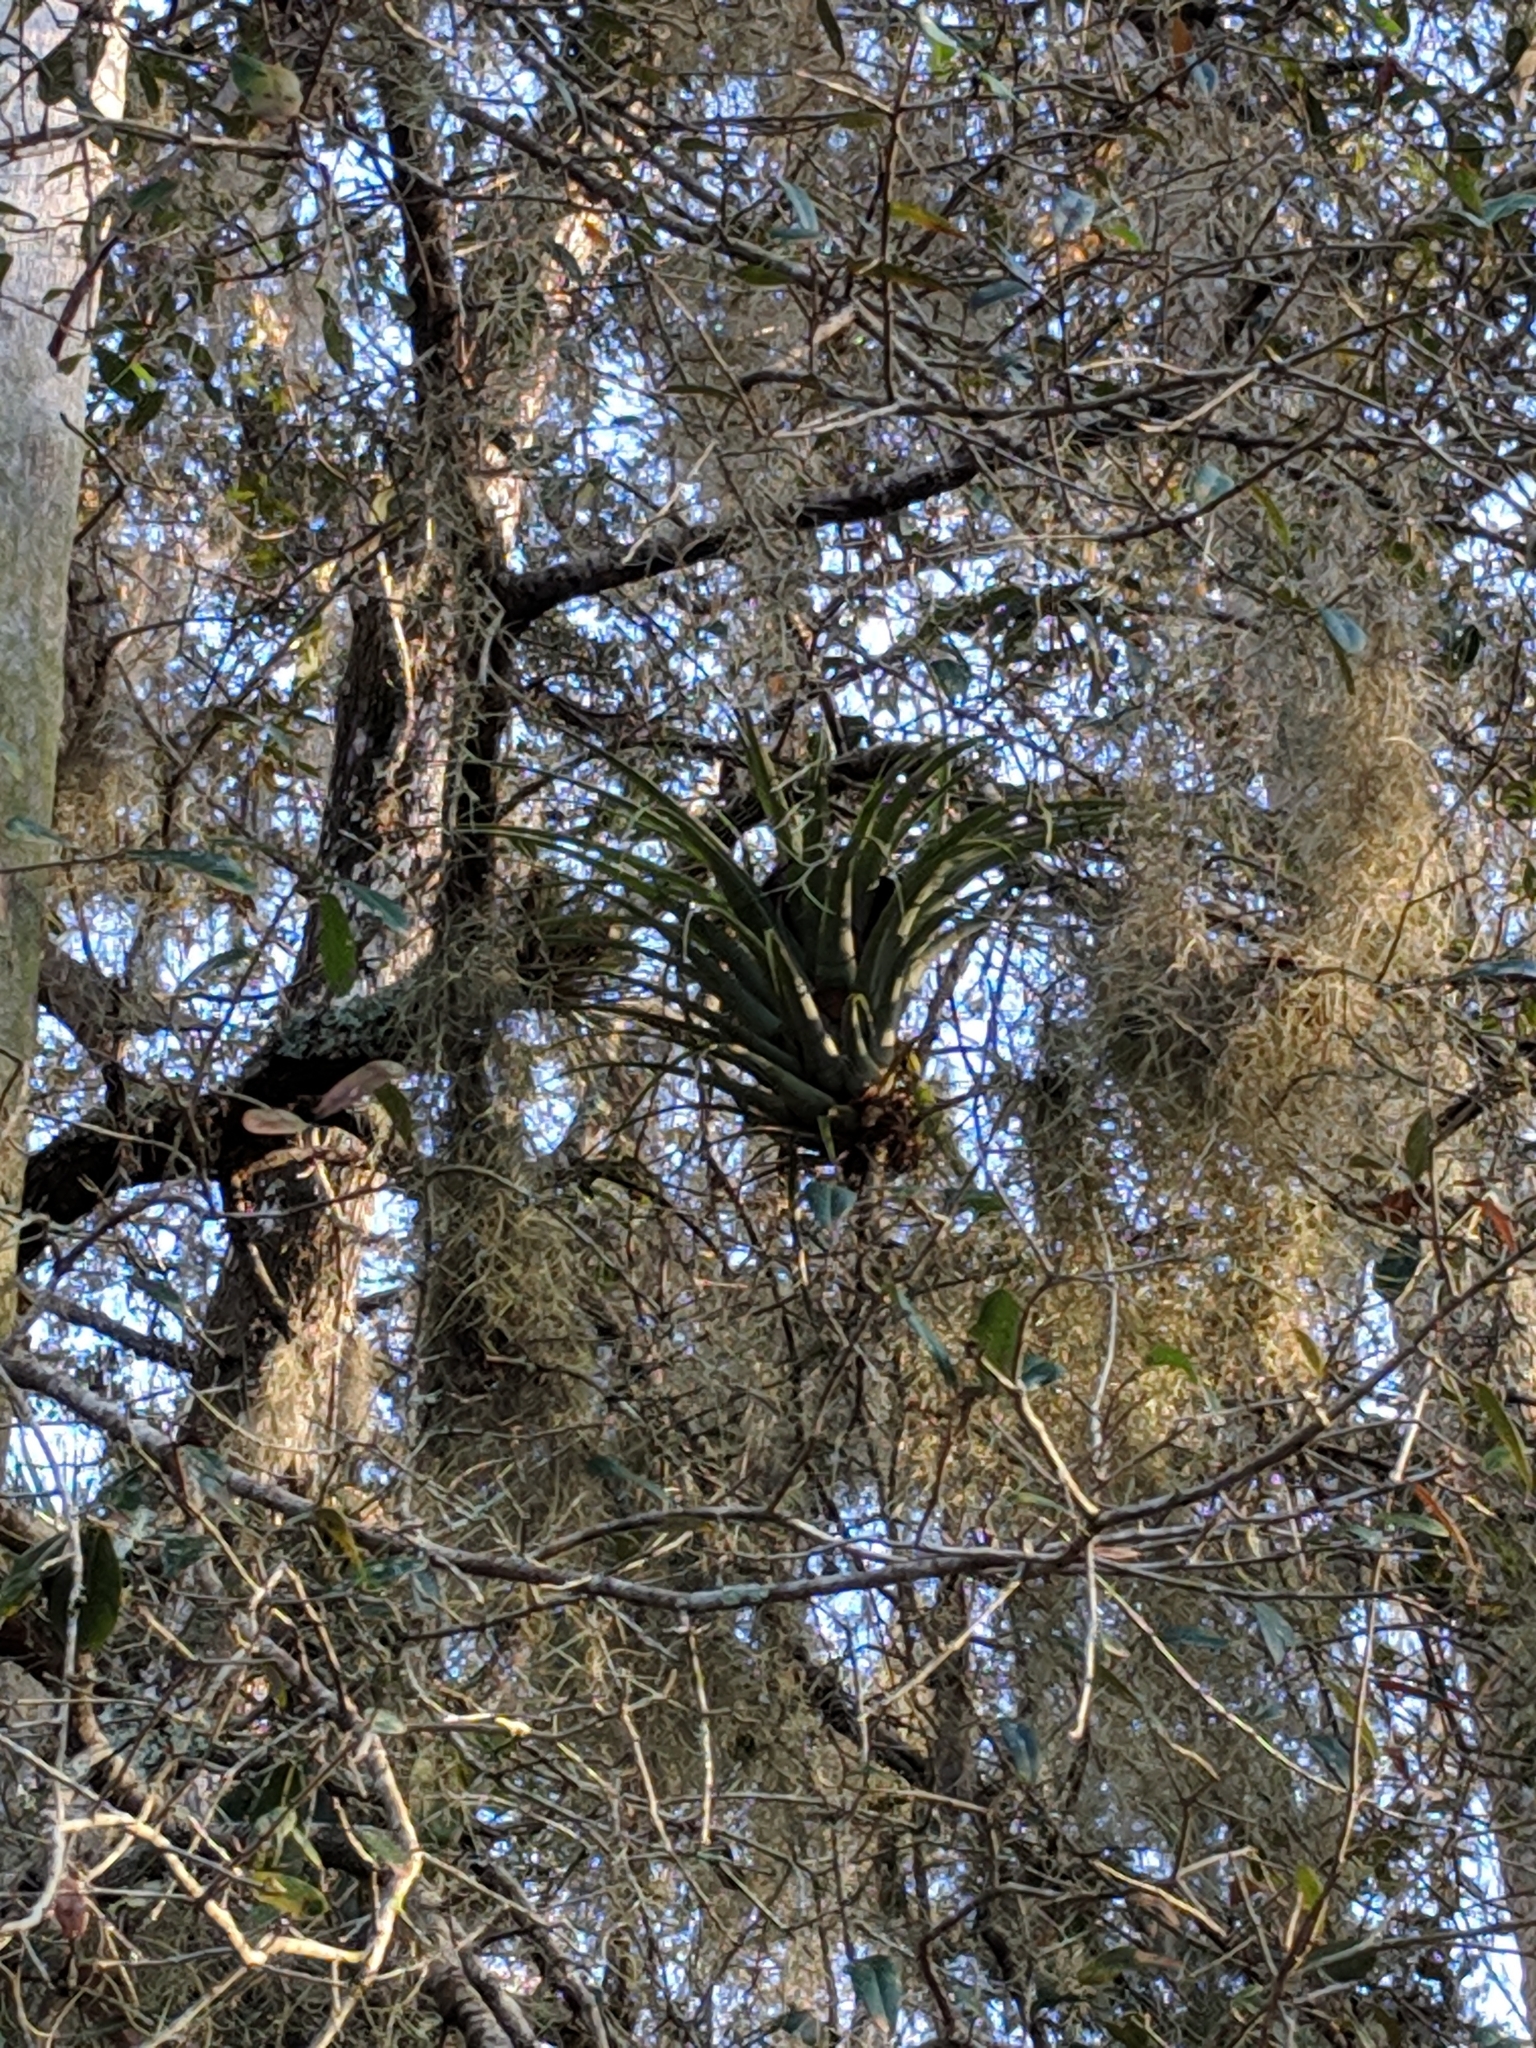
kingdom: Plantae
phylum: Tracheophyta
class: Liliopsida
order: Poales
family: Bromeliaceae
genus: Tillandsia
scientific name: Tillandsia utriculata
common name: Wild pine
